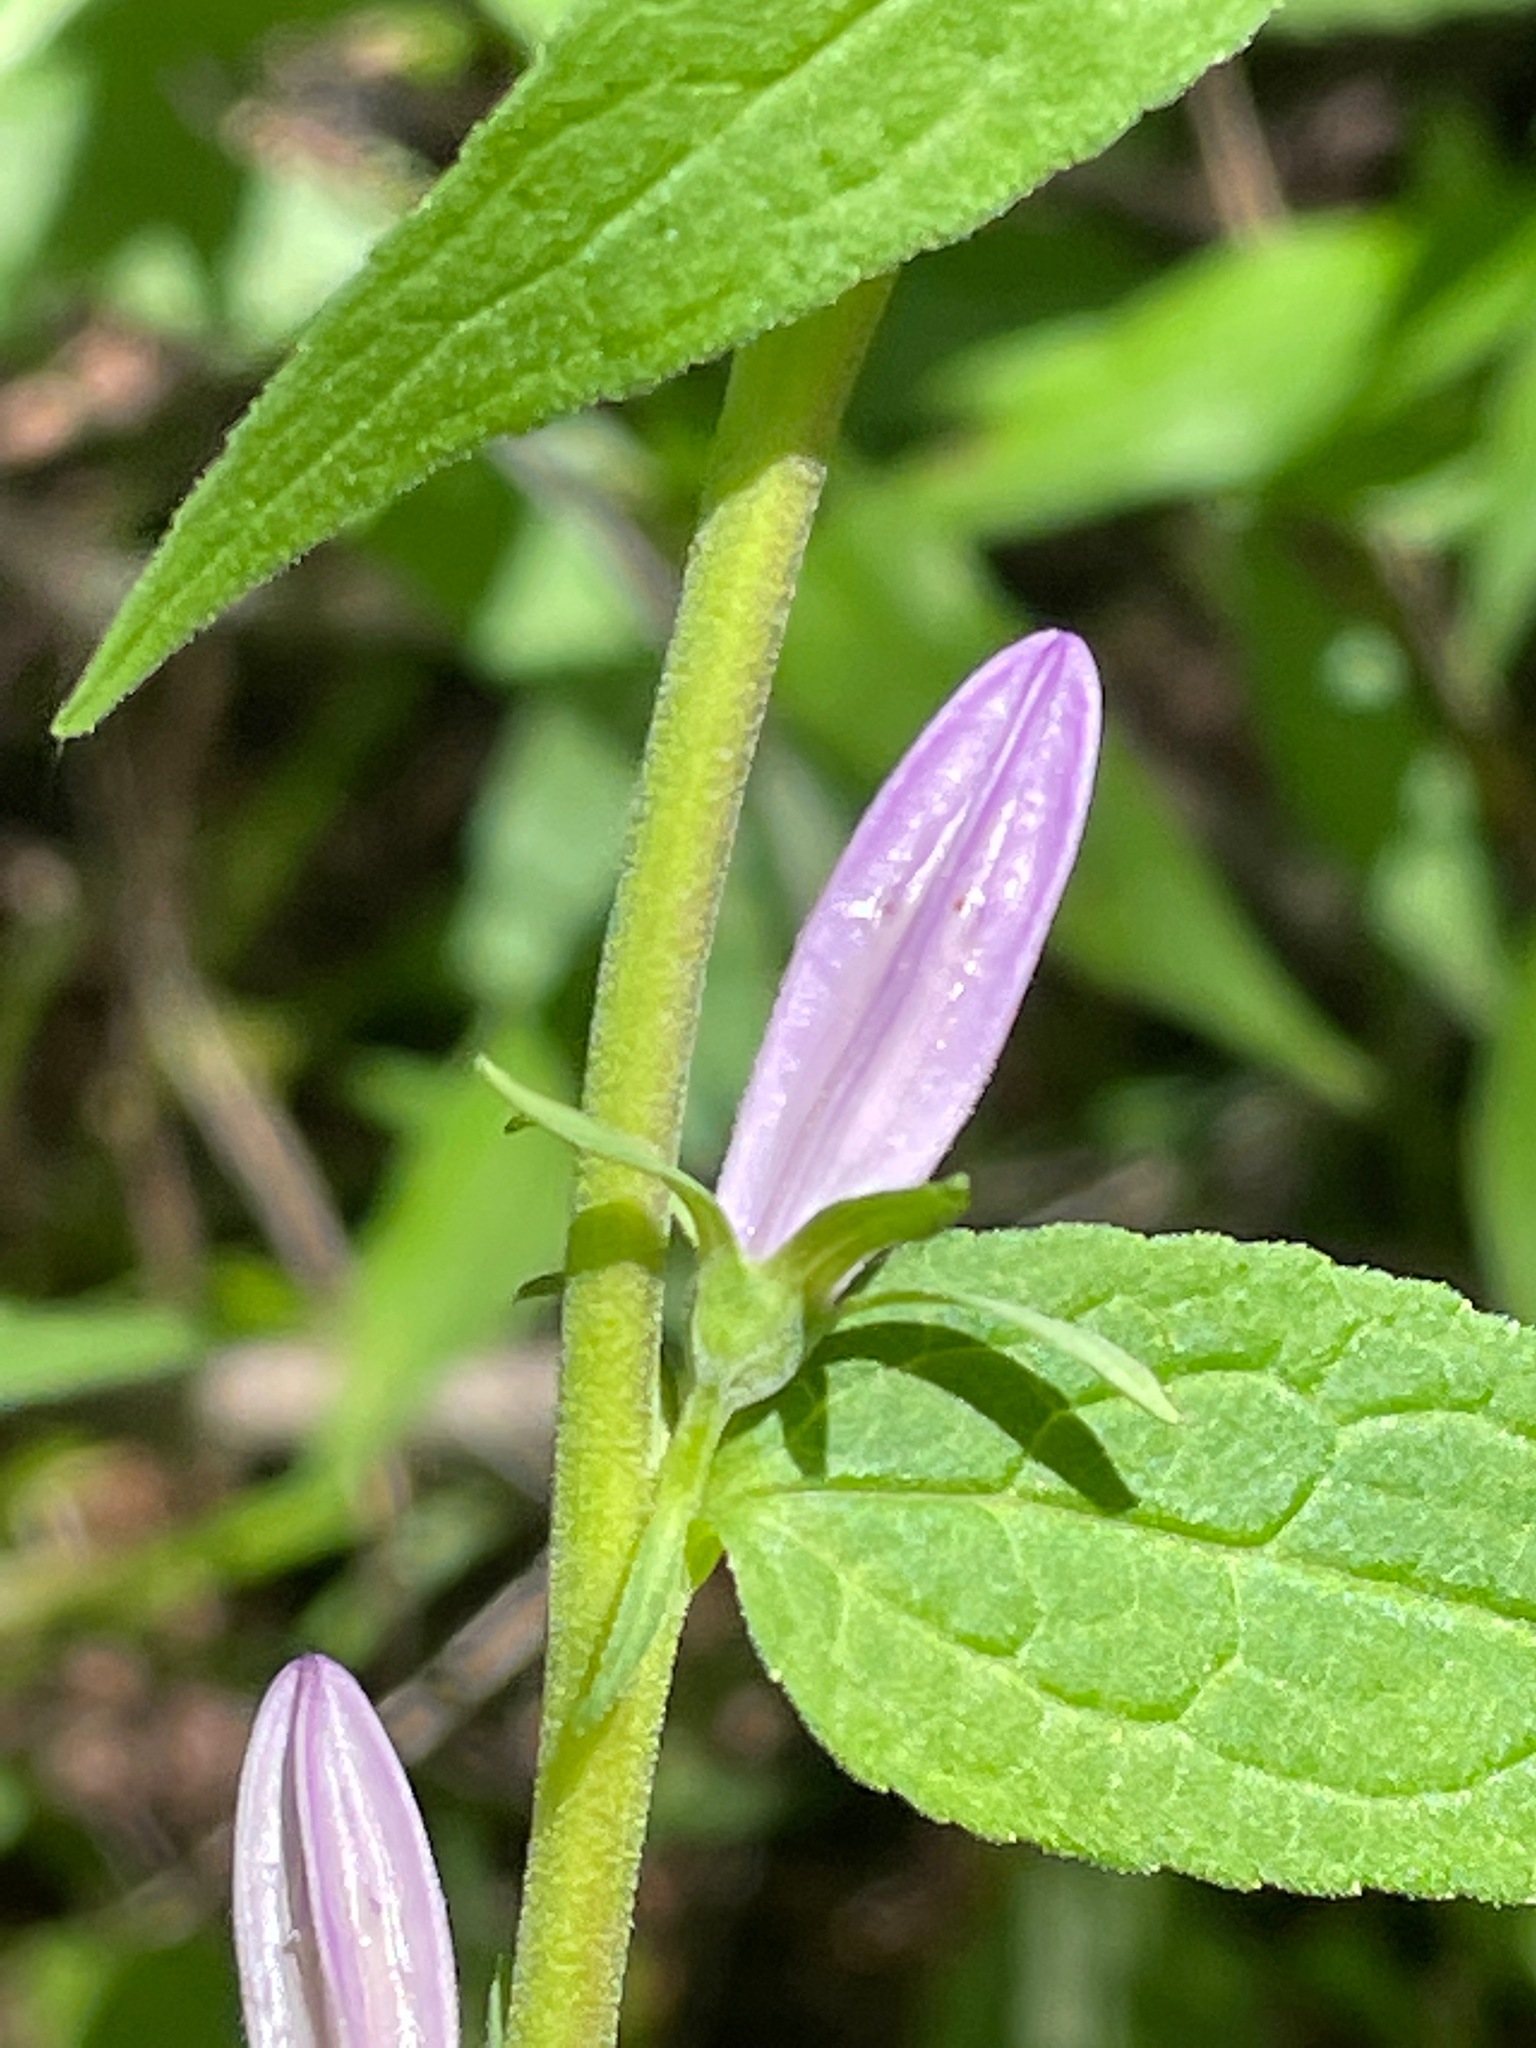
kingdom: Plantae
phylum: Tracheophyta
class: Magnoliopsida
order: Asterales
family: Campanulaceae
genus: Campanula
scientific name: Campanula rapunculoides
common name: Creeping bellflower
